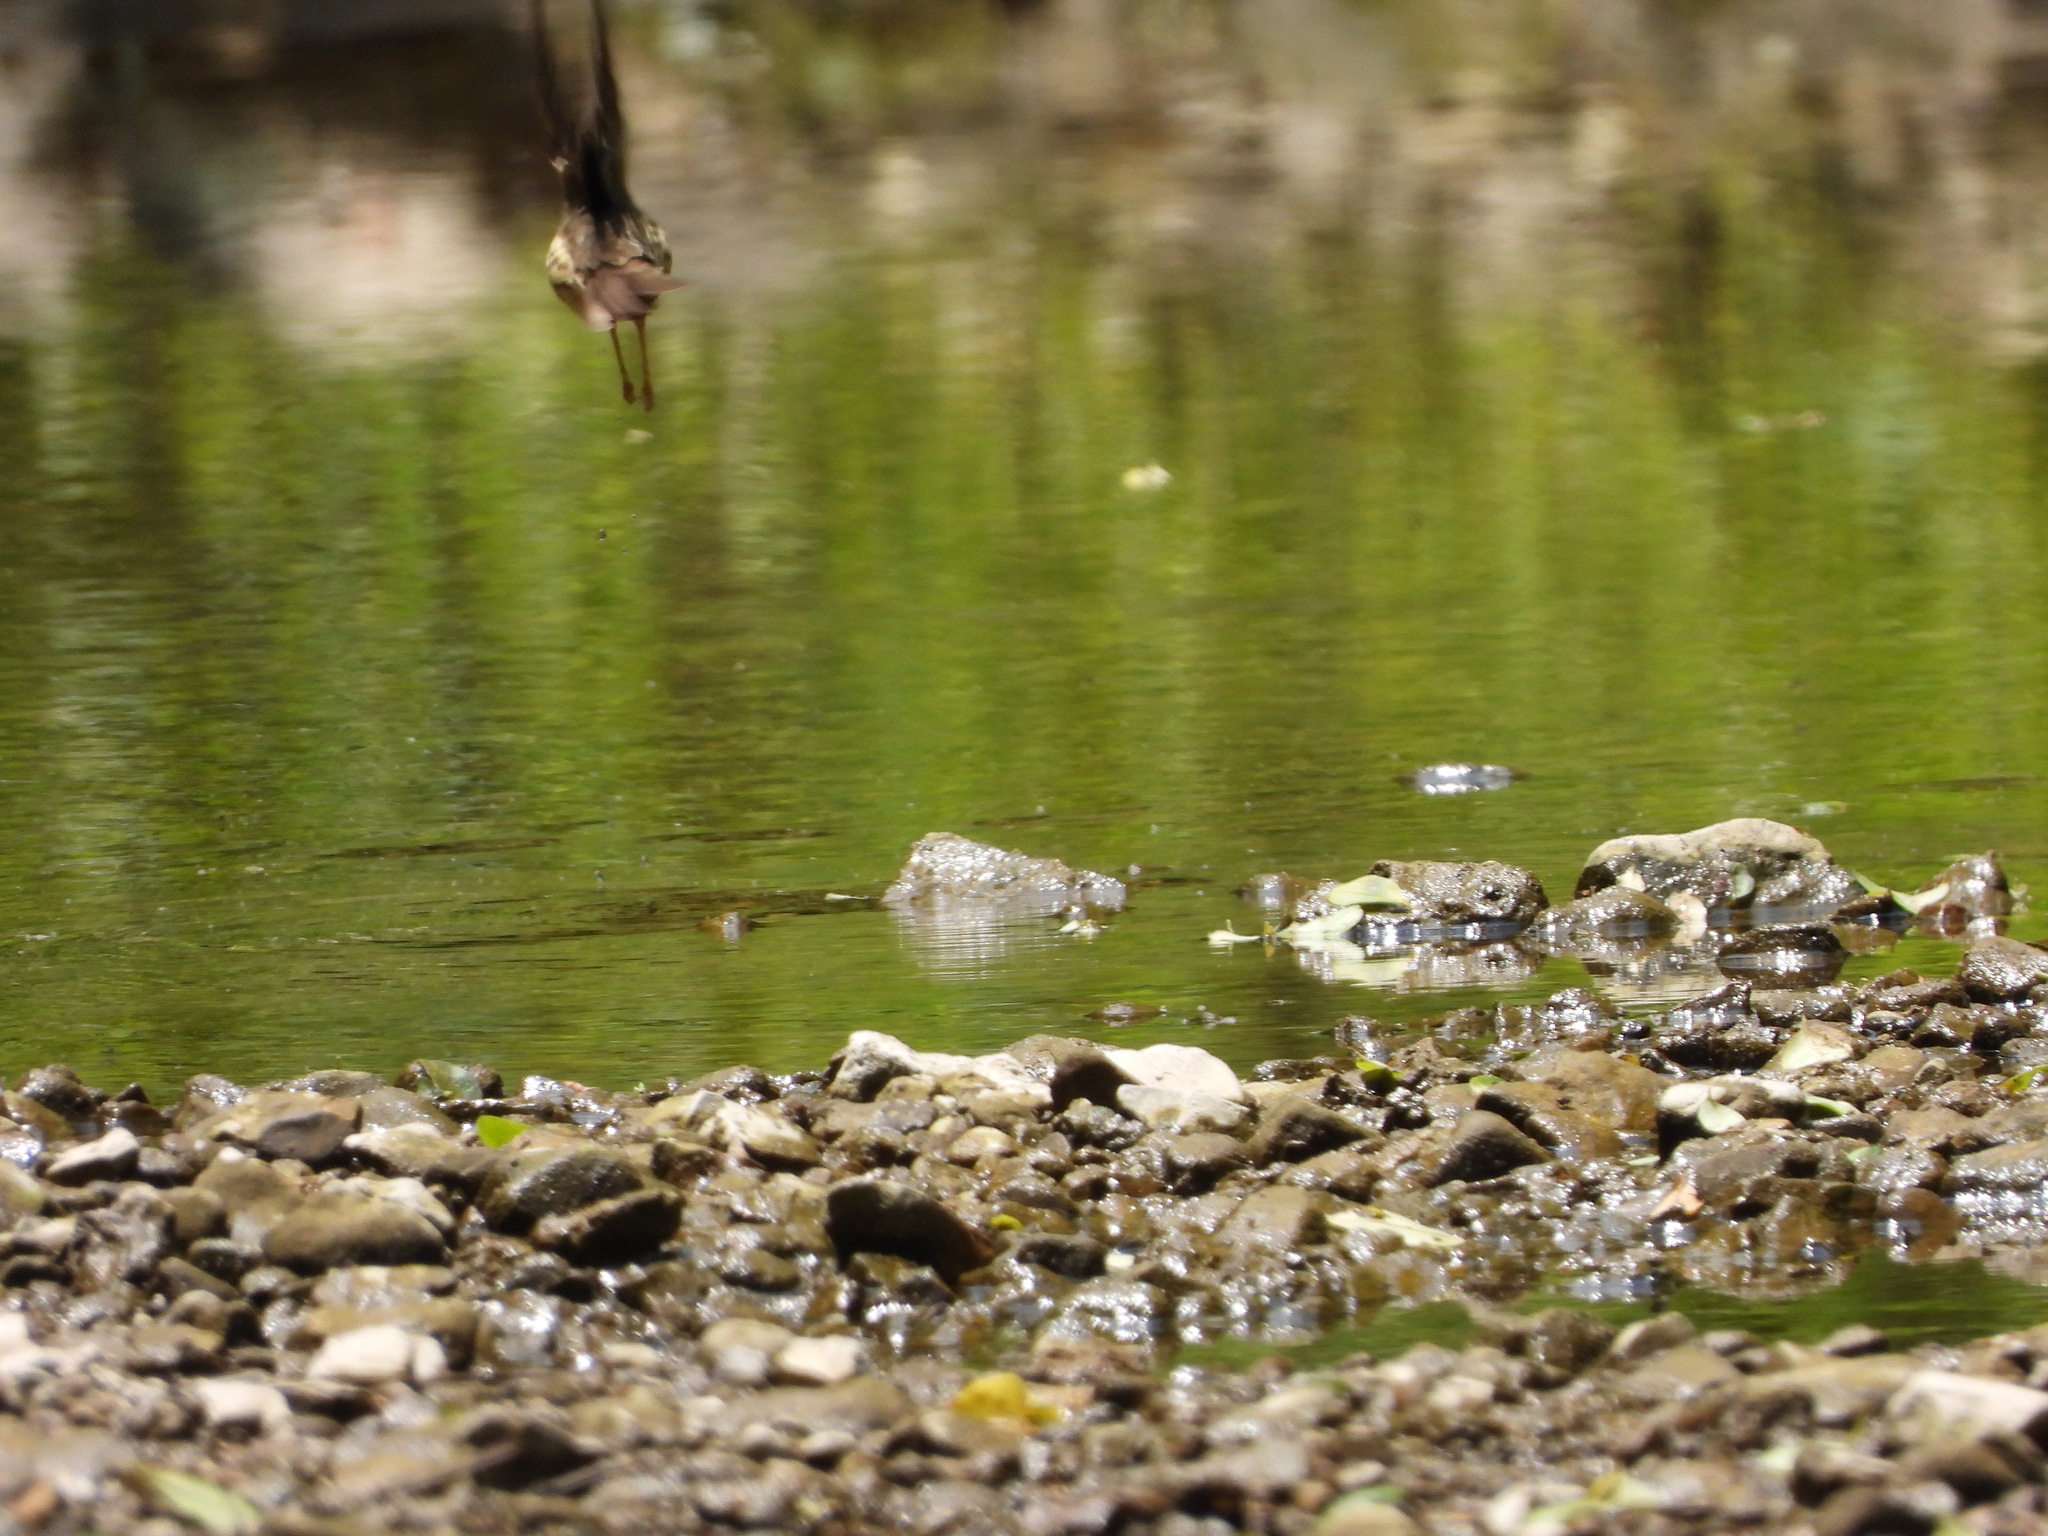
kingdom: Animalia
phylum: Chordata
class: Aves
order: Passeriformes
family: Parulidae
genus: Parkesia
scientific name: Parkesia motacilla
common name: Louisiana waterthrush
